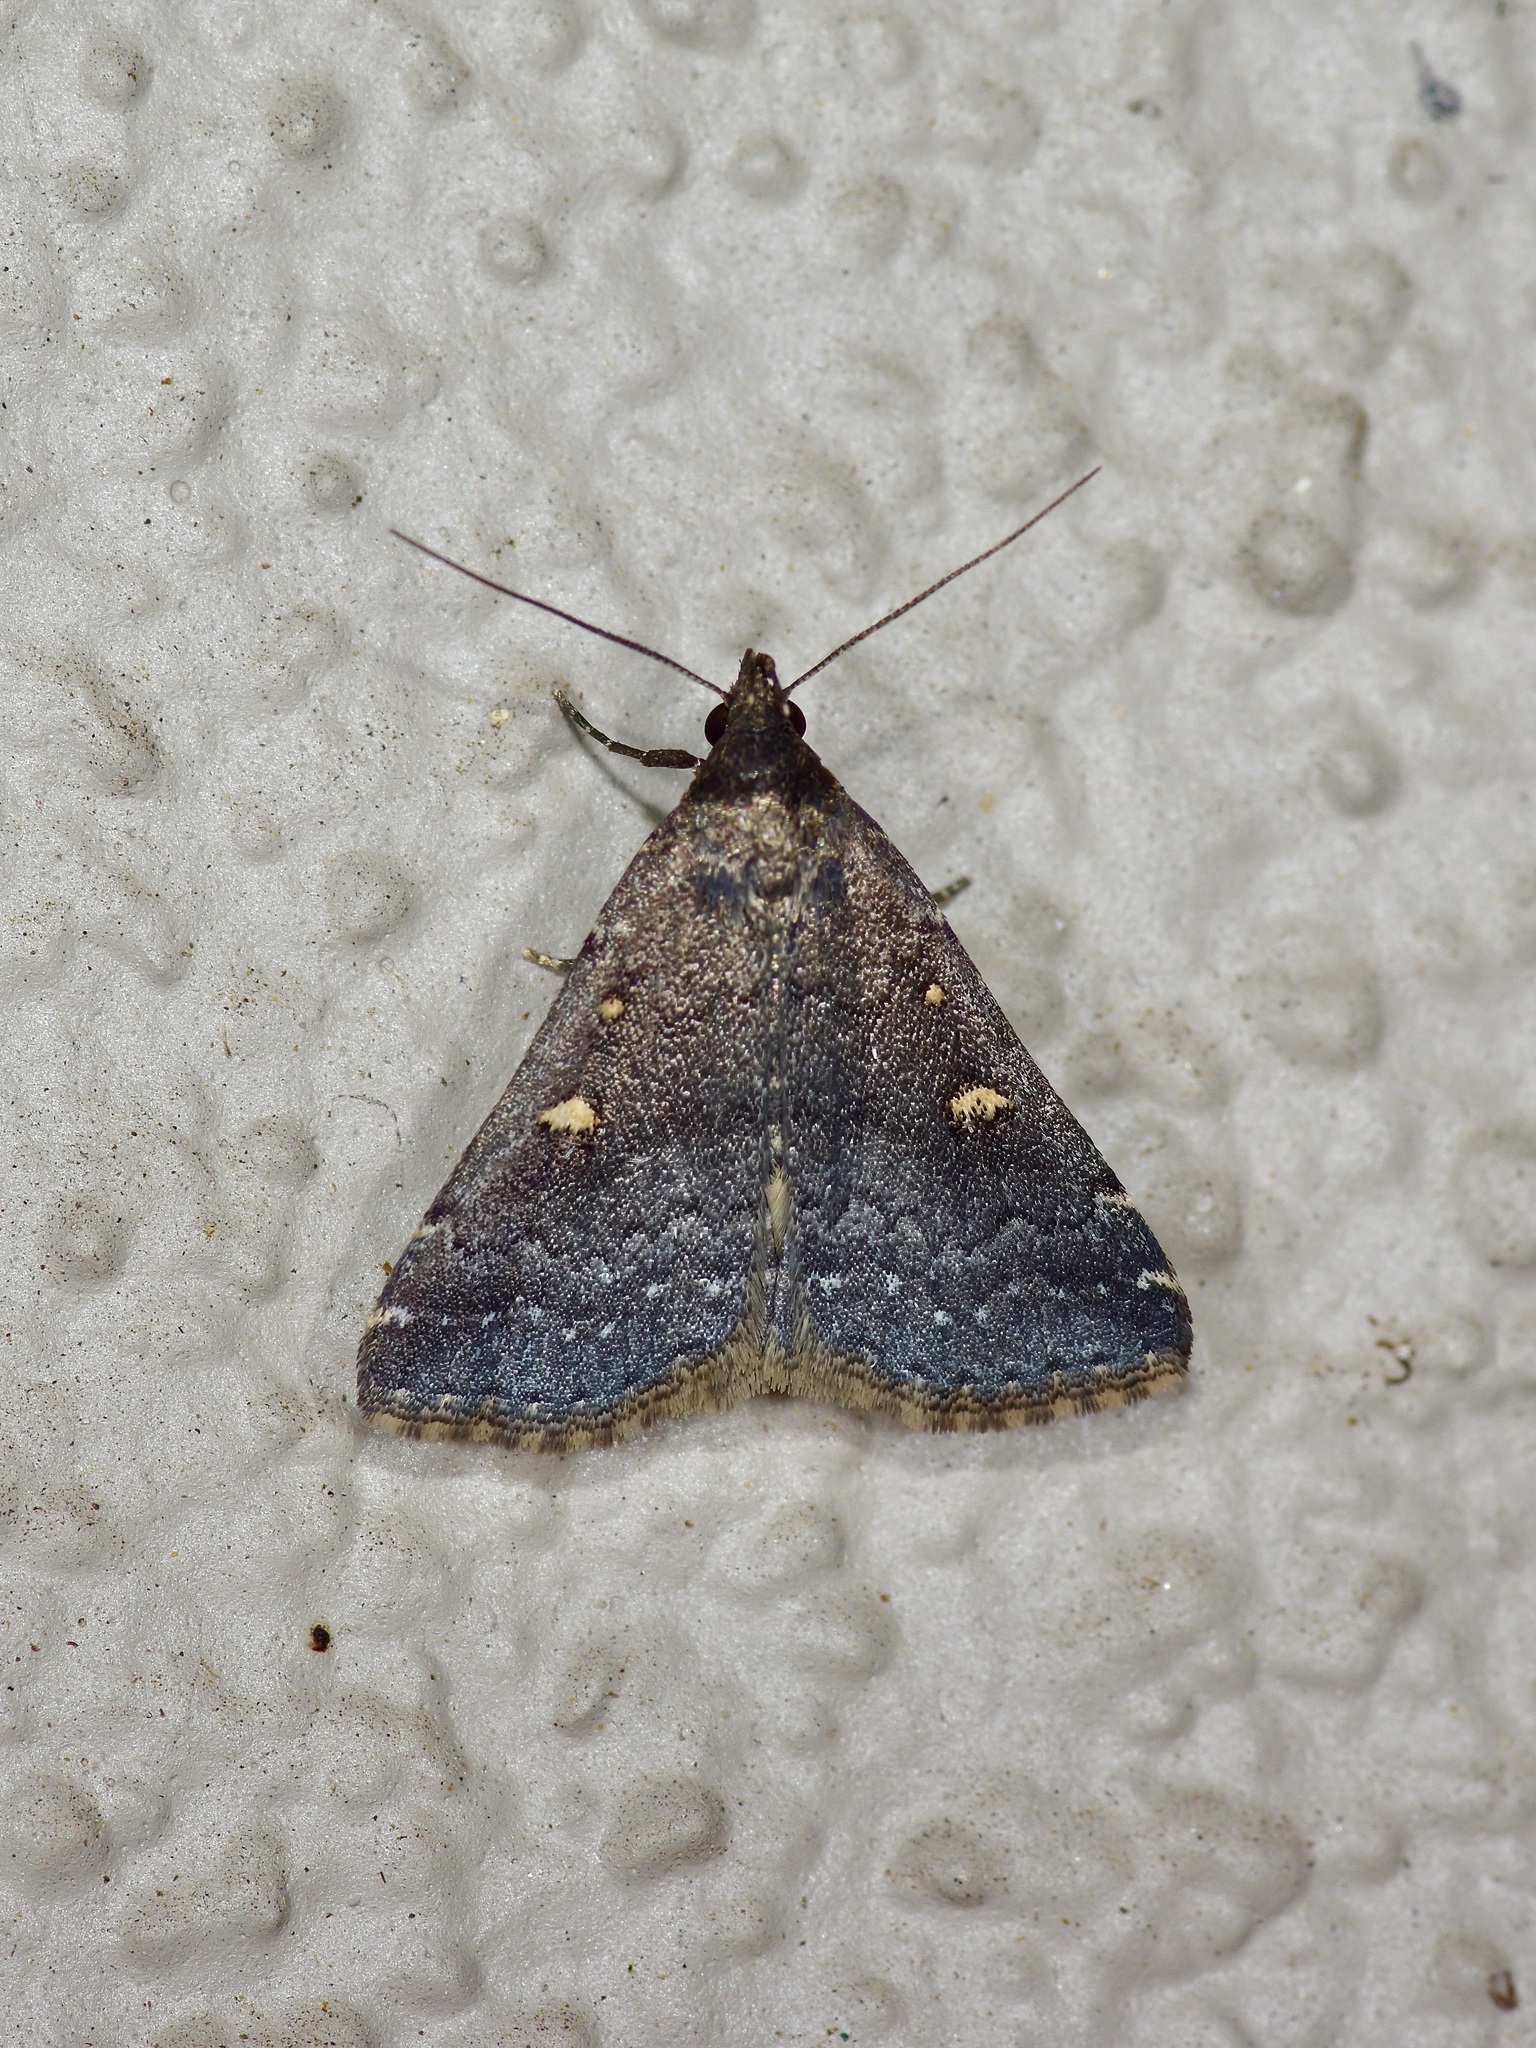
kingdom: Animalia
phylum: Arthropoda
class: Insecta
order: Lepidoptera
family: Erebidae
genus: Tetanolita
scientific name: Tetanolita mynesalis
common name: Smoky tetanolita moth
